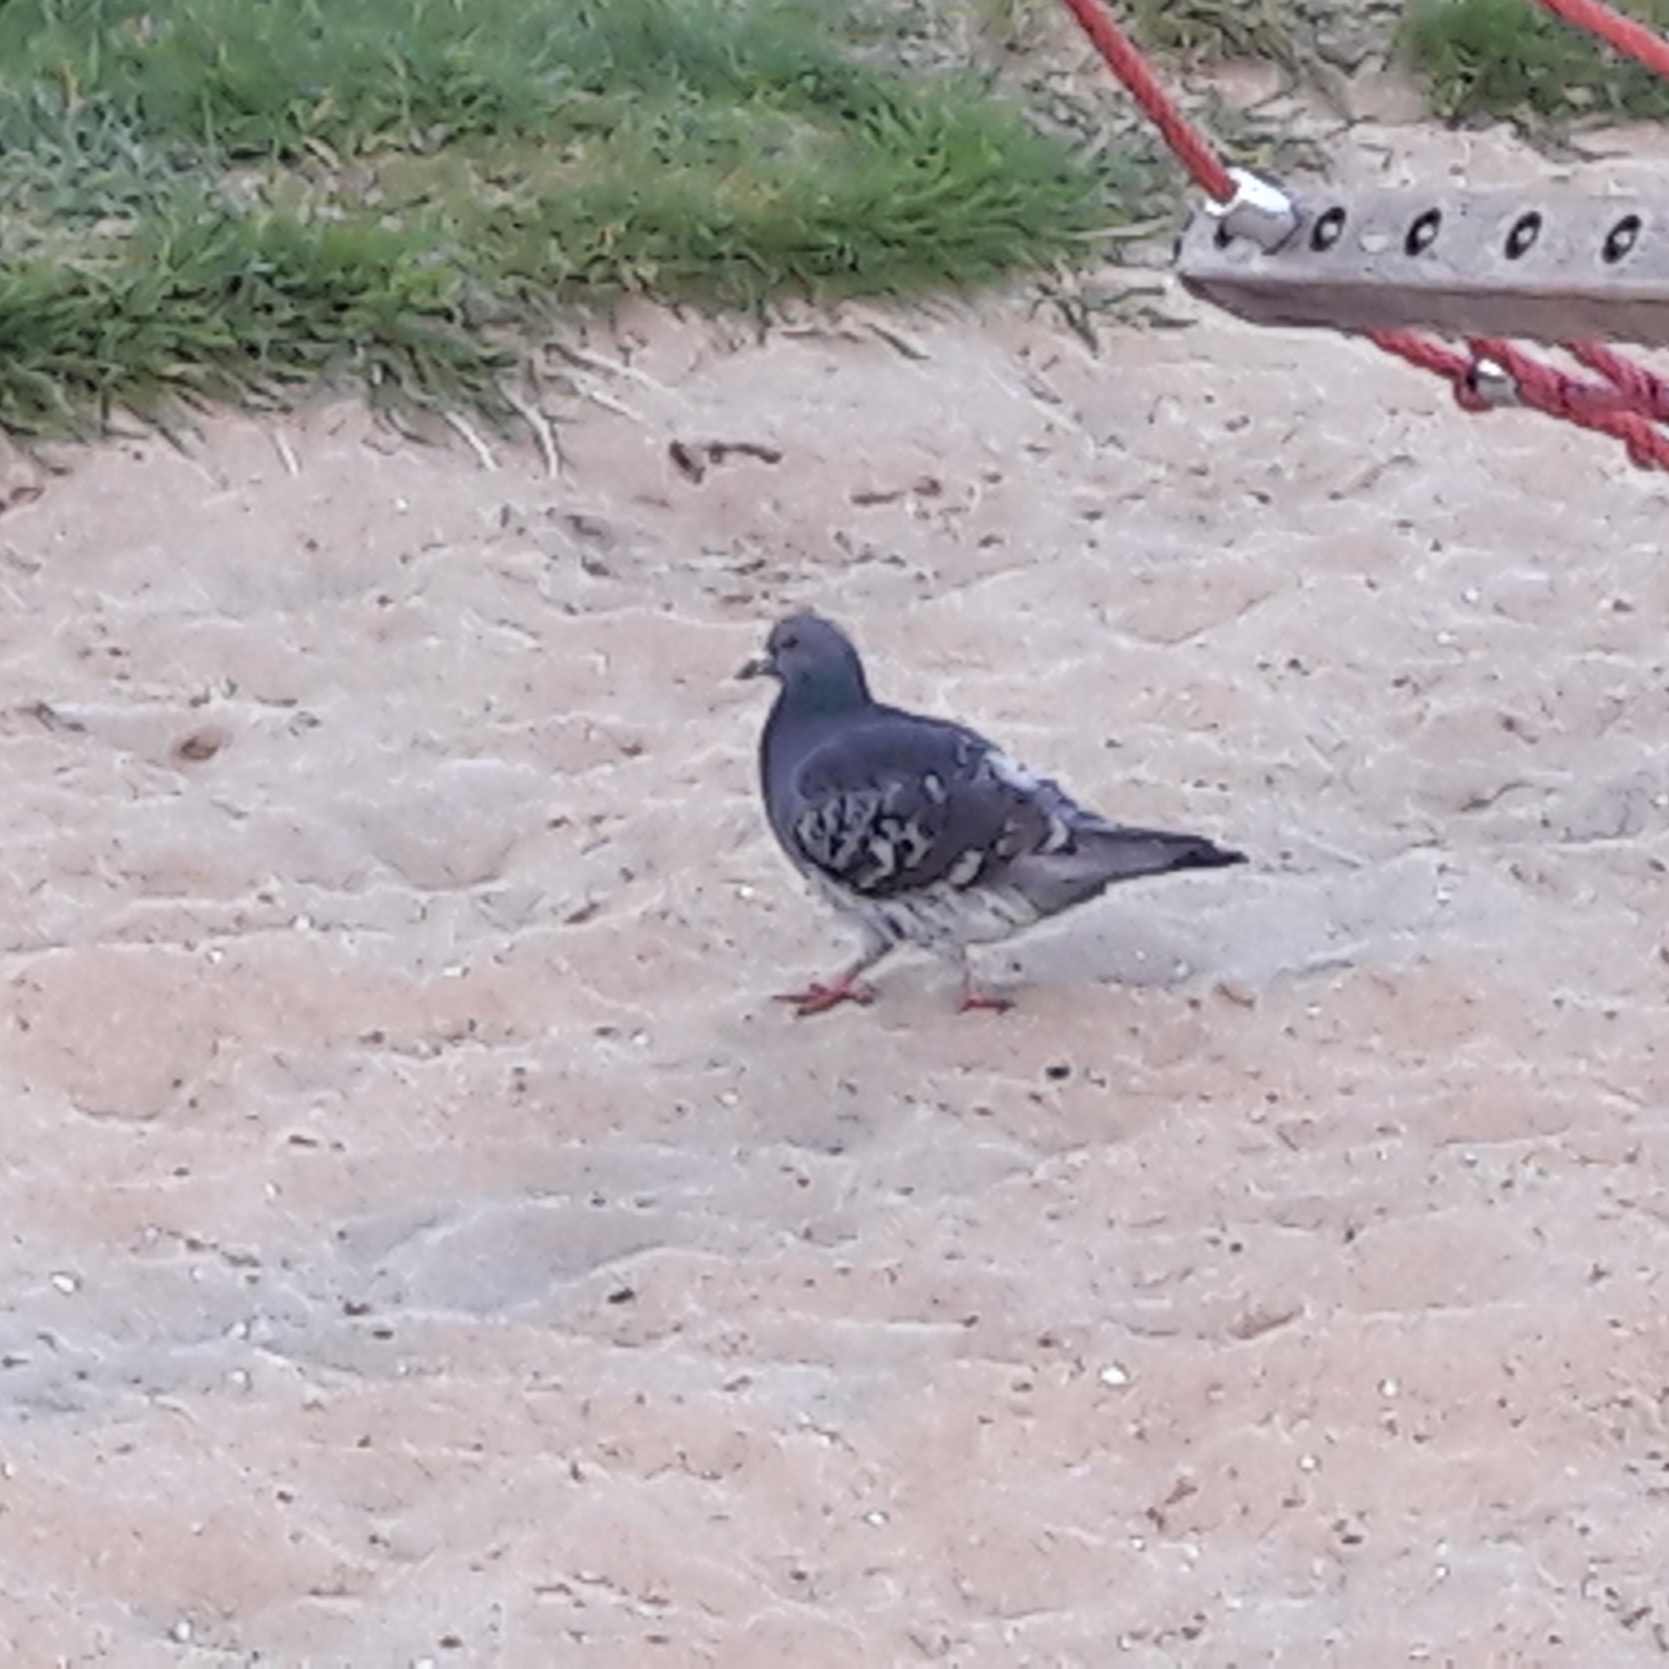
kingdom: Animalia
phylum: Chordata
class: Aves
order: Columbiformes
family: Columbidae
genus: Columba
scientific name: Columba livia
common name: Rock pigeon
